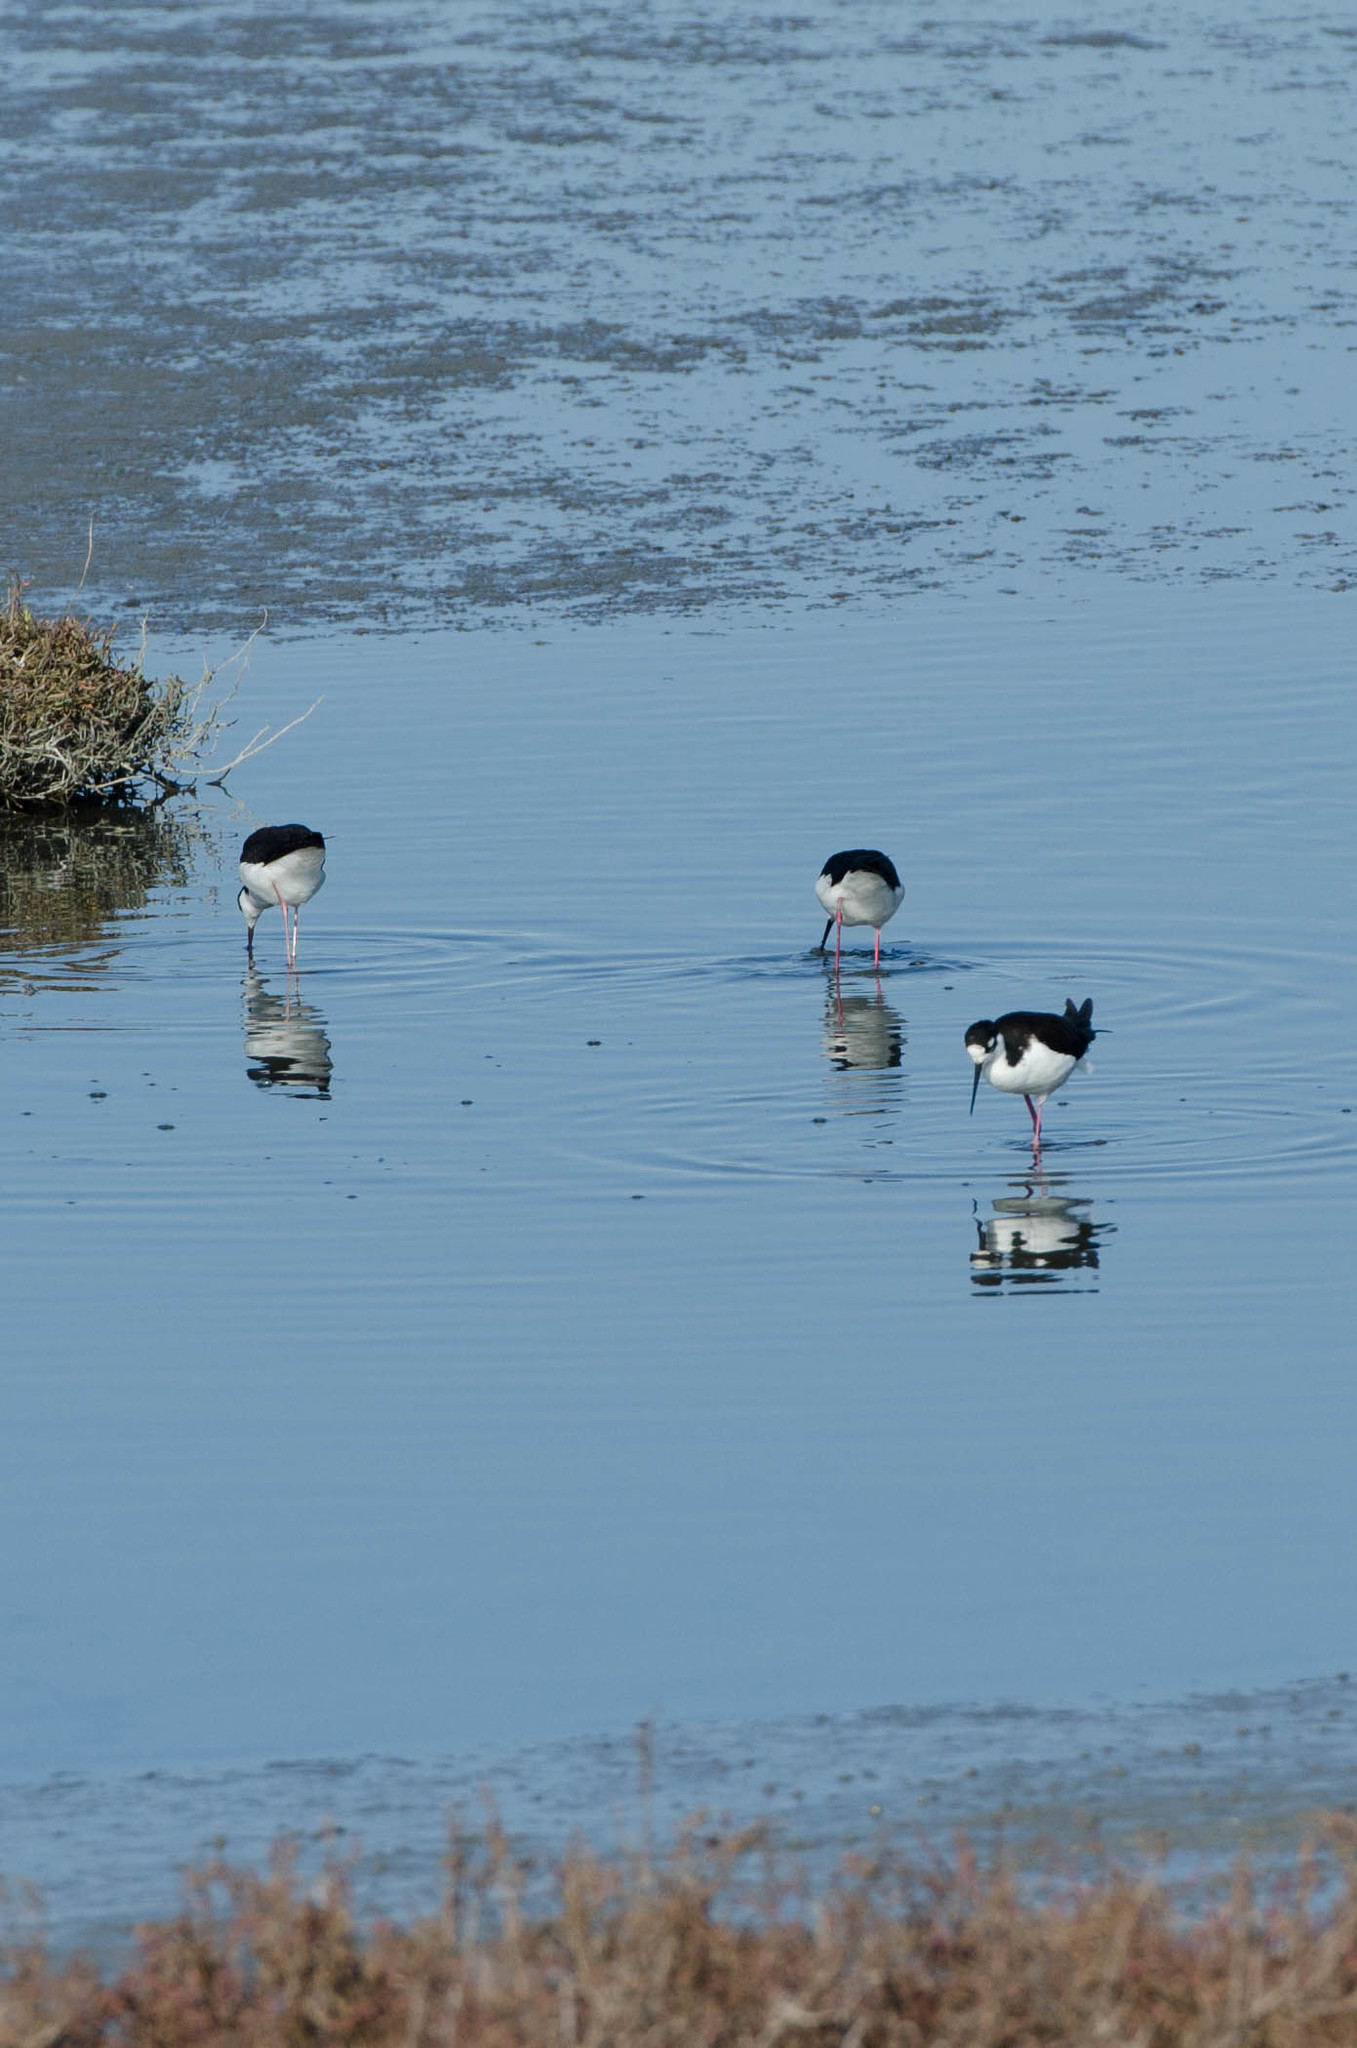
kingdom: Animalia
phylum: Chordata
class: Aves
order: Charadriiformes
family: Recurvirostridae
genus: Himantopus
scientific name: Himantopus mexicanus
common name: Black-necked stilt
